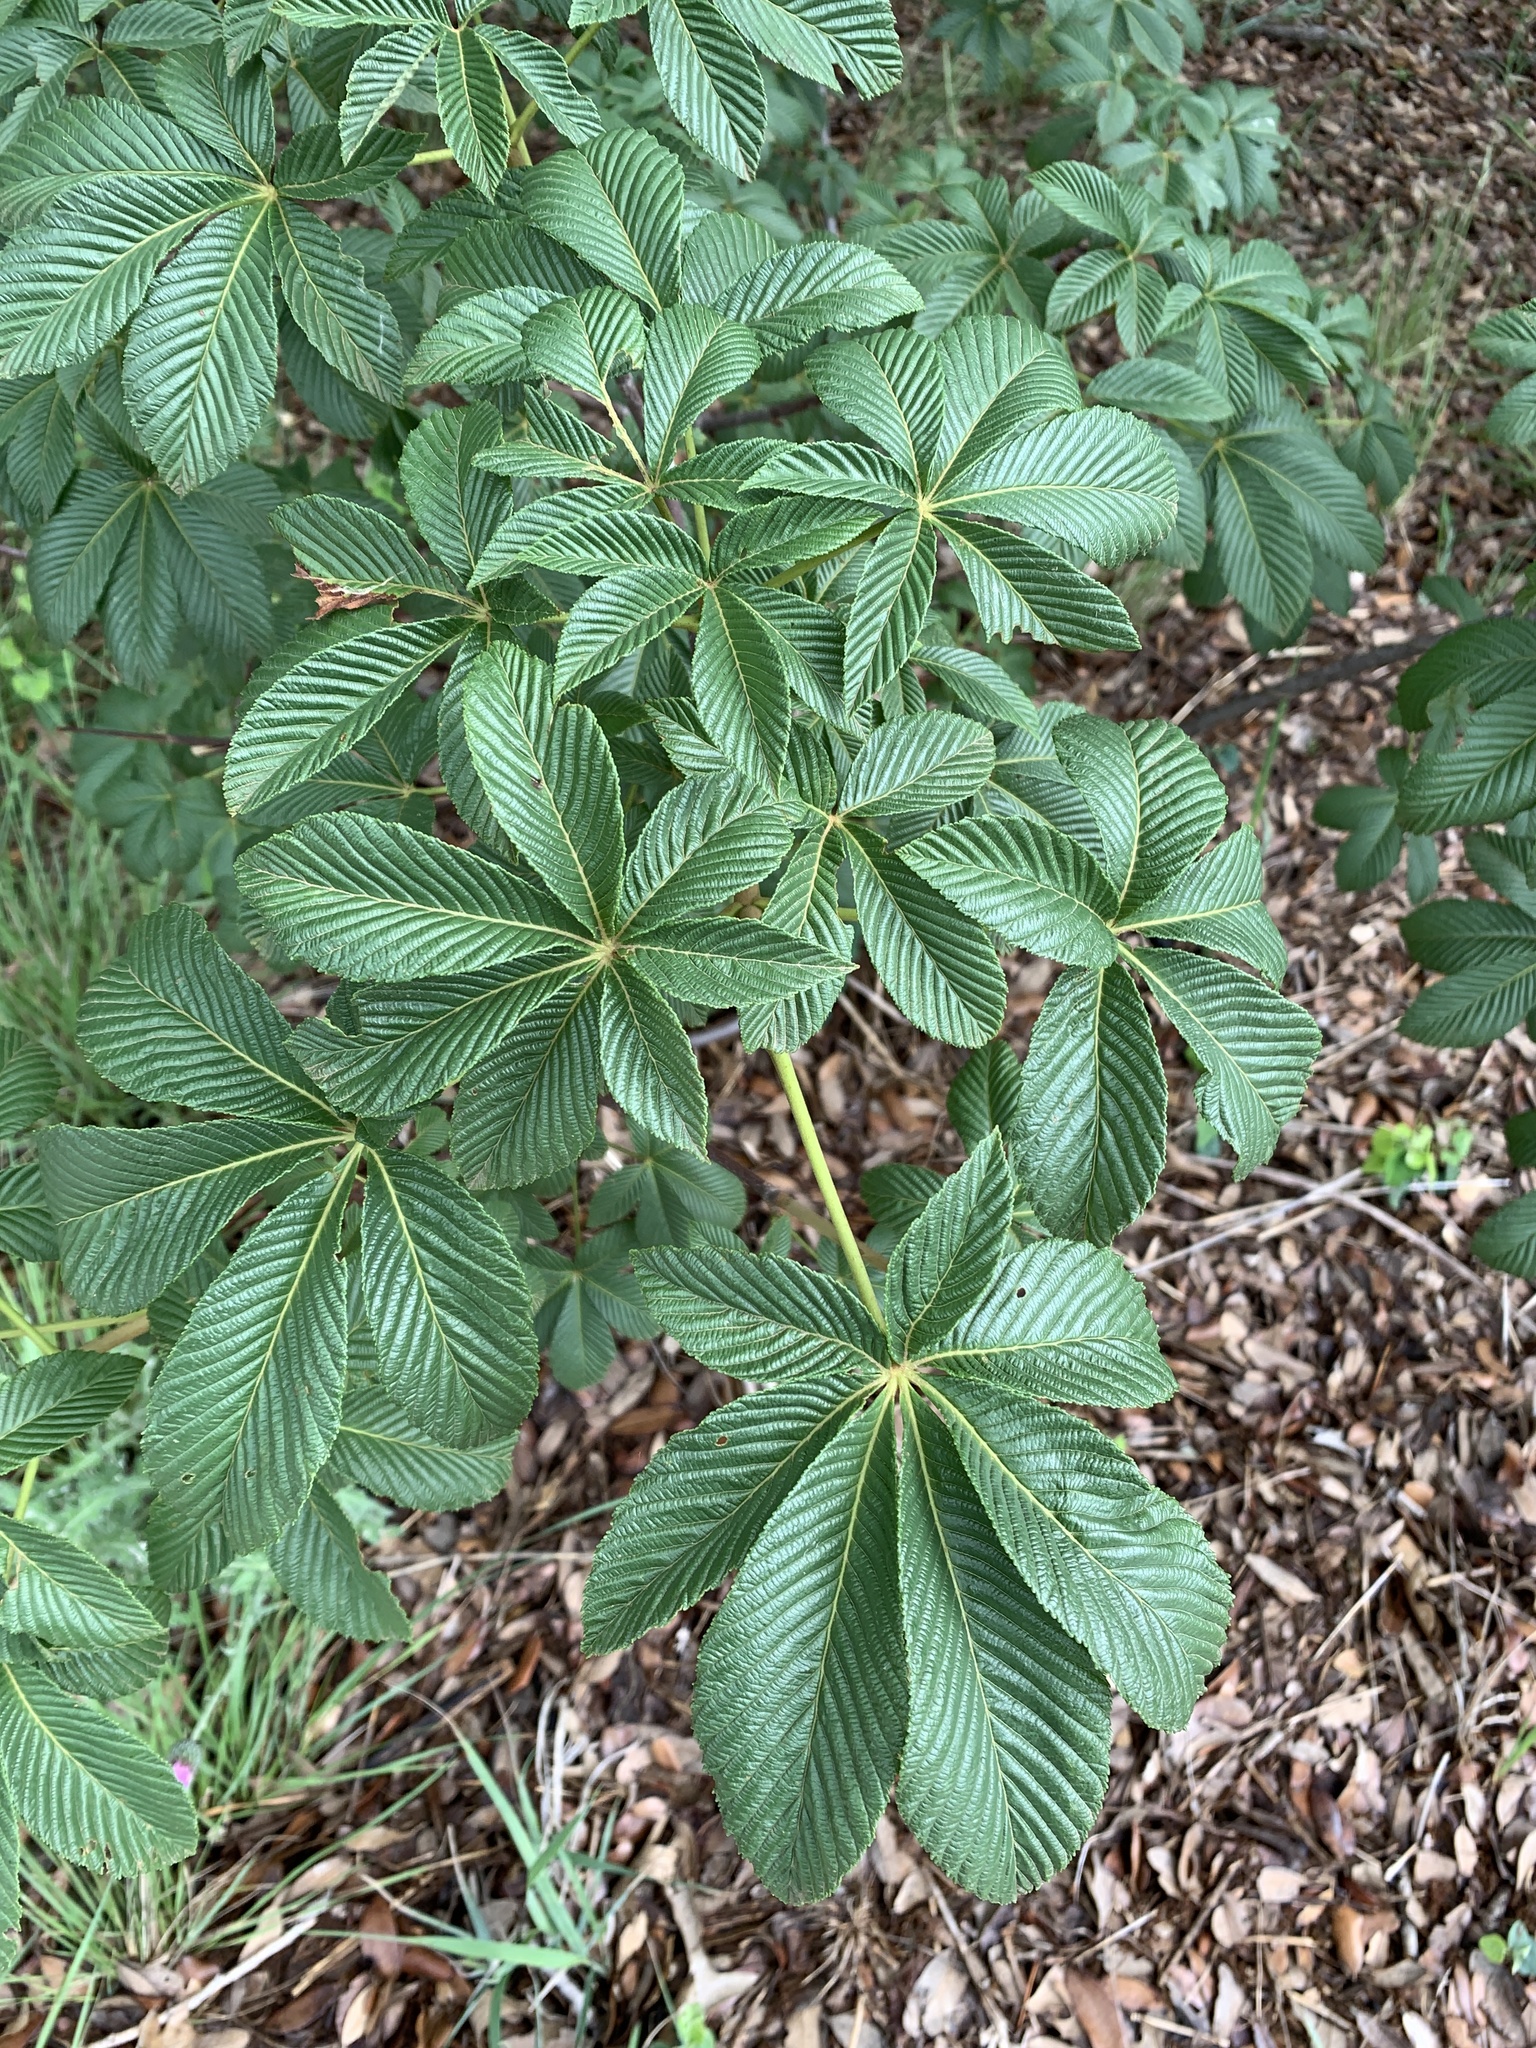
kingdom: Plantae
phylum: Tracheophyta
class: Magnoliopsida
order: Sapindales
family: Sapindaceae
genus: Aesculus
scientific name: Aesculus pavia
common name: Red buckeye
